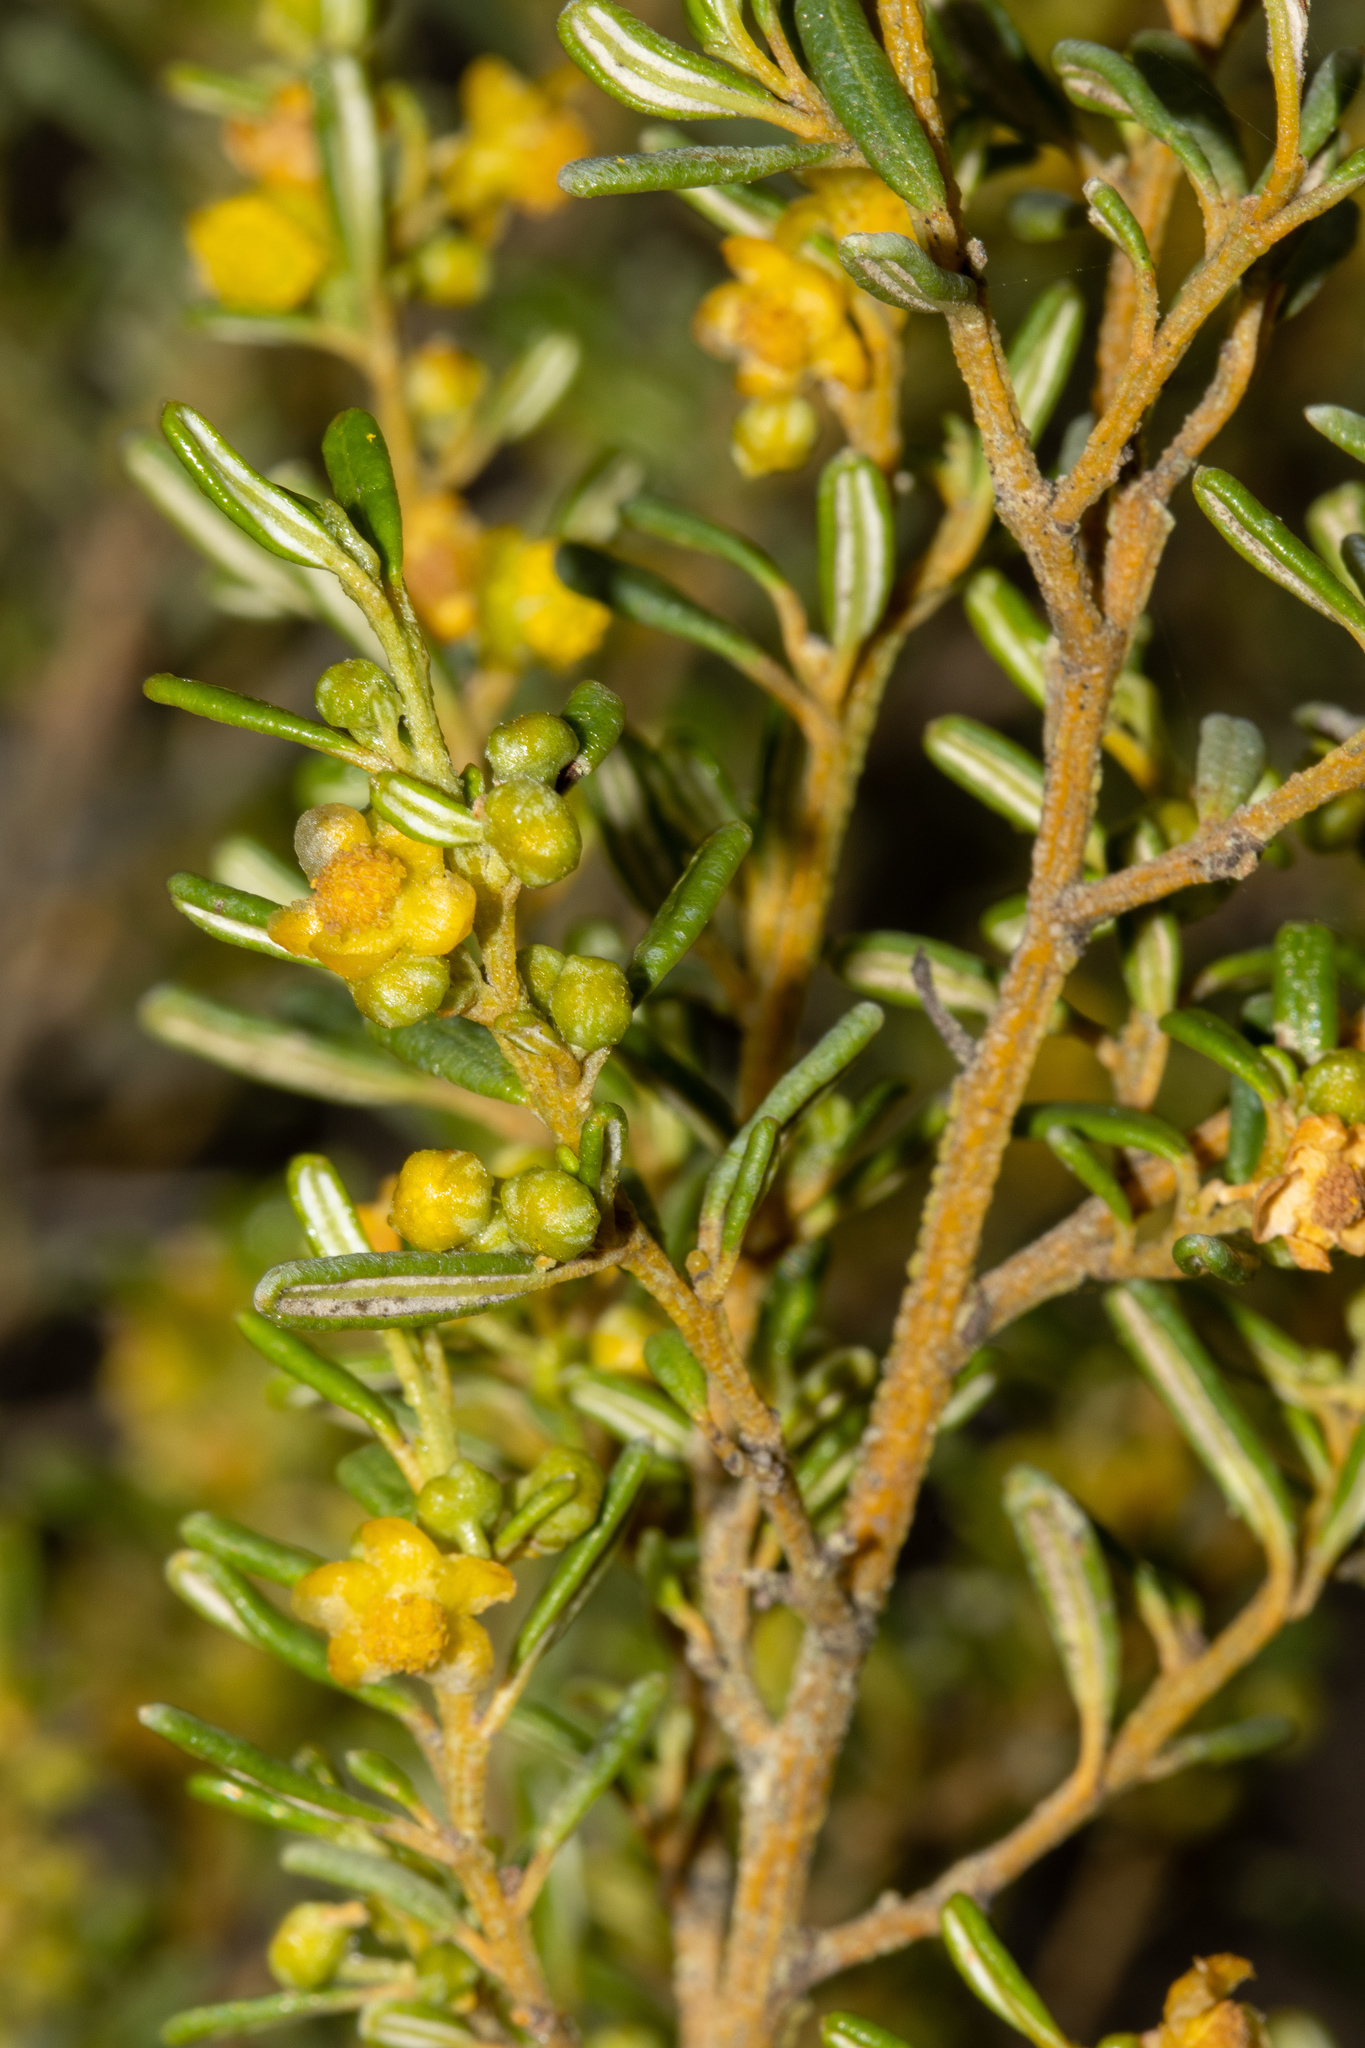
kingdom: Plantae
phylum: Tracheophyta
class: Magnoliopsida
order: Malpighiales
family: Euphorbiaceae
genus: Beyeria
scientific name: Beyeria lechenaultii
